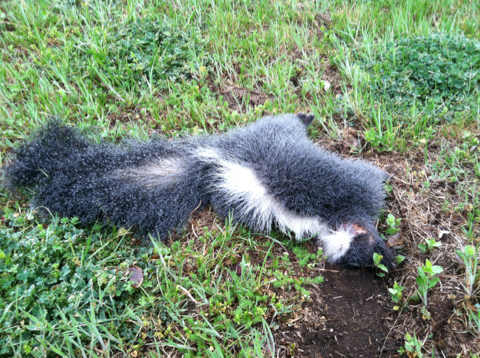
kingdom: Animalia
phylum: Chordata
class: Mammalia
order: Carnivora
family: Mephitidae
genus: Mephitis
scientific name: Mephitis mephitis
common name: Striped skunk
